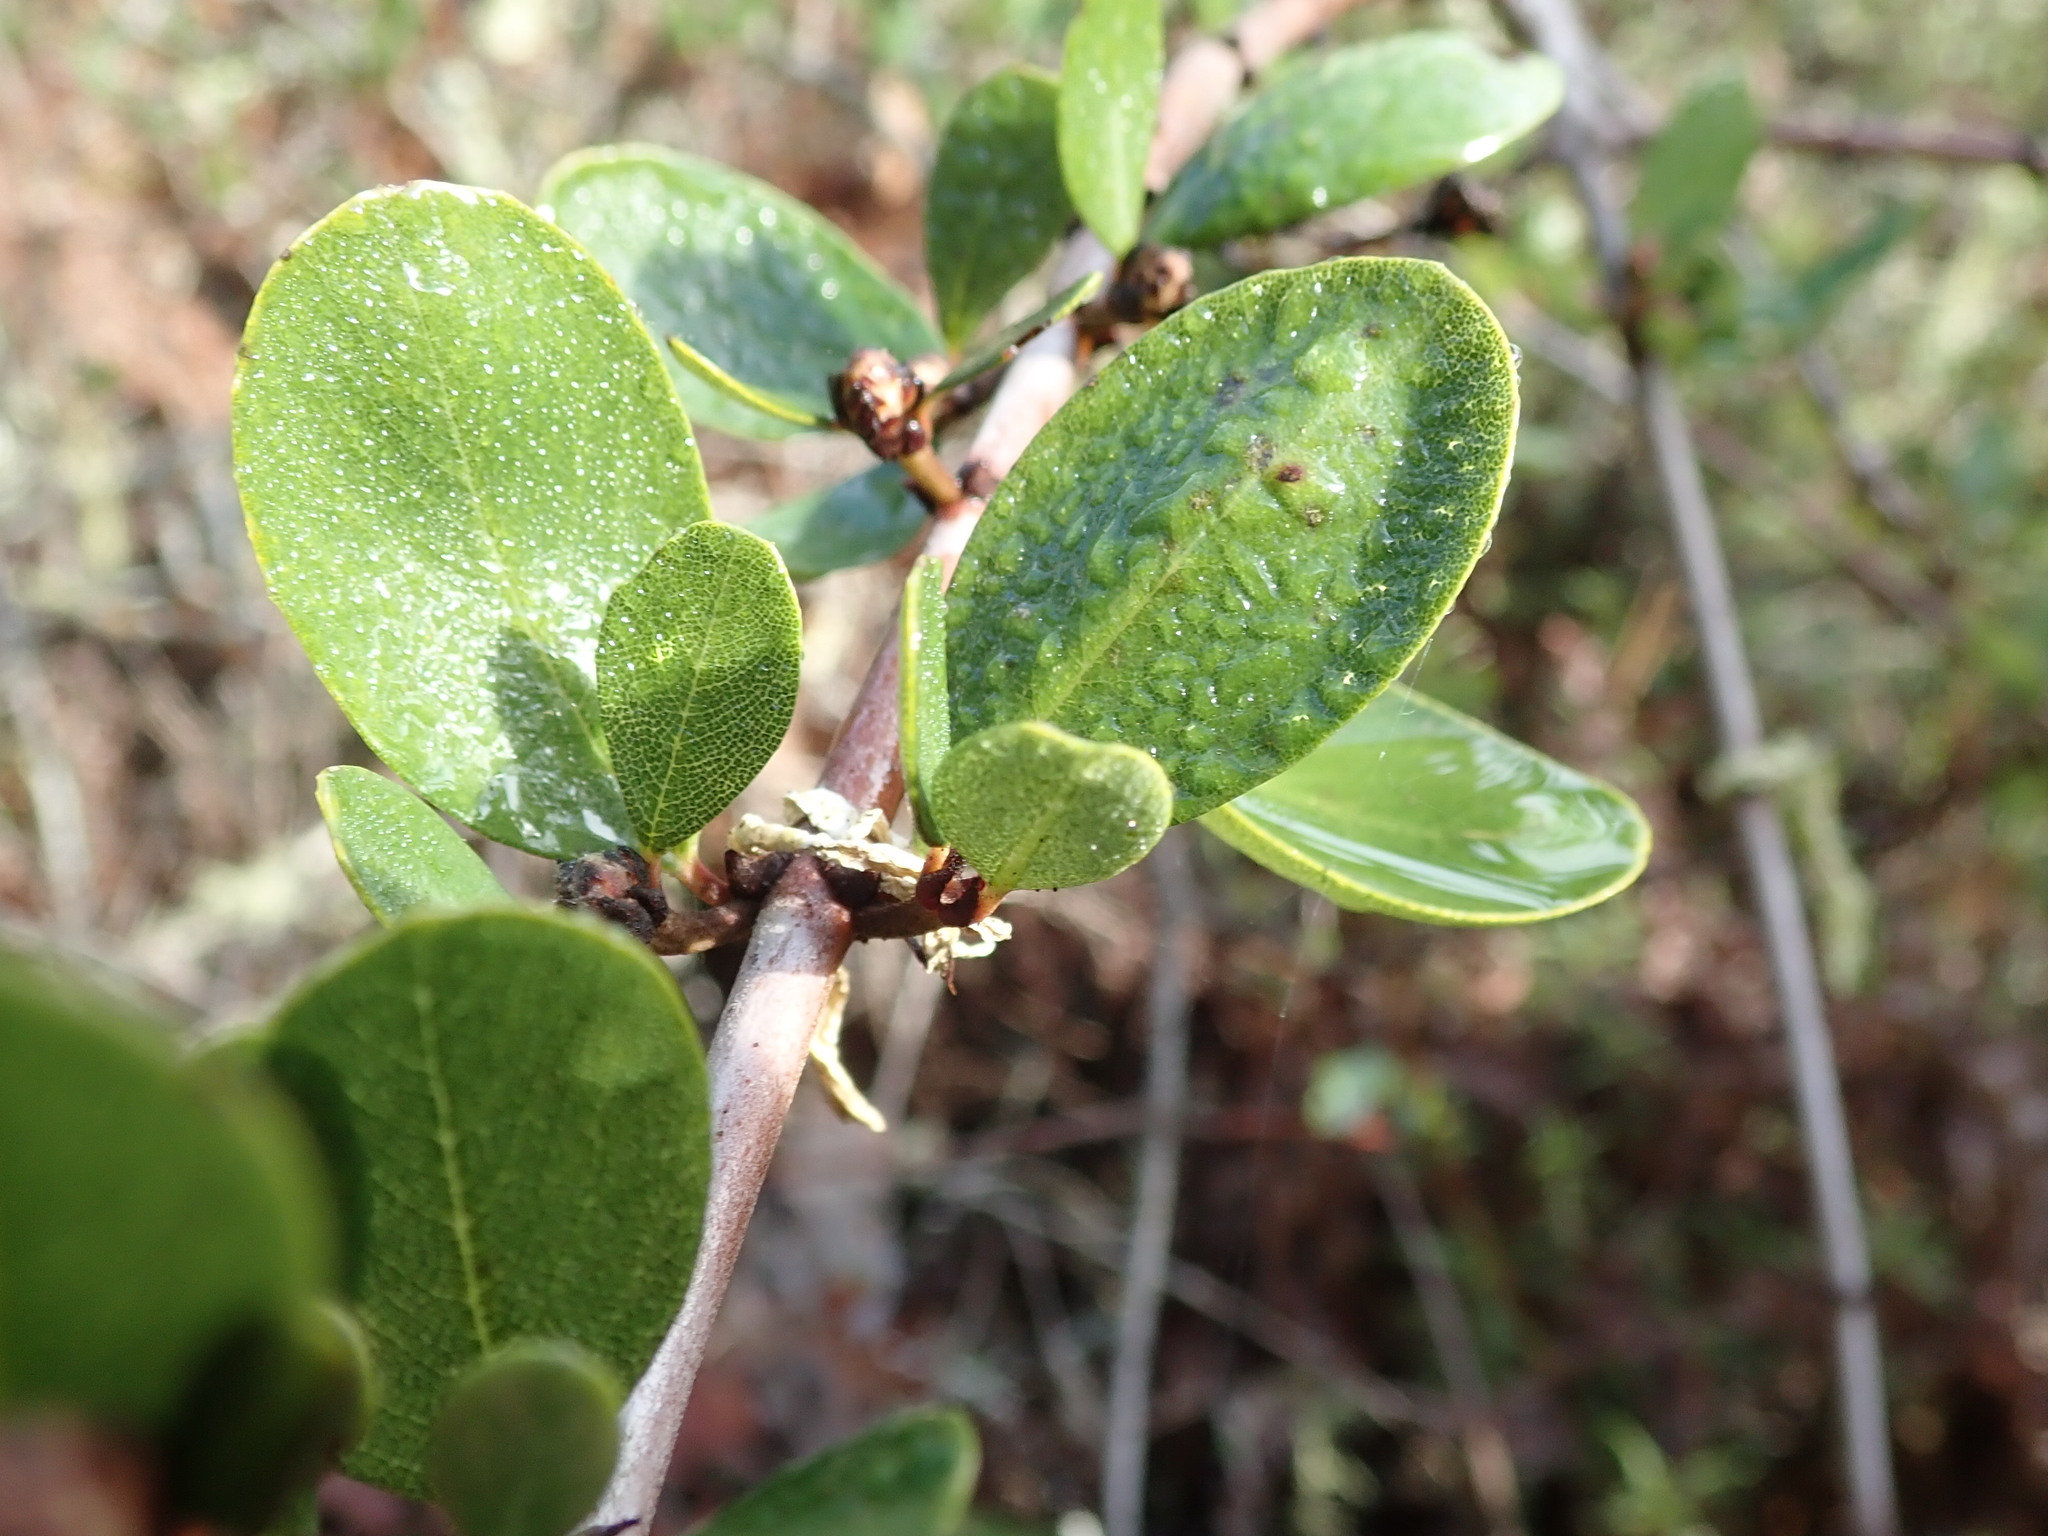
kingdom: Plantae
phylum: Tracheophyta
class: Magnoliopsida
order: Rosales
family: Rhamnaceae
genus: Ceanothus
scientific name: Ceanothus cuneatus
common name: Cuneate ceanothus
